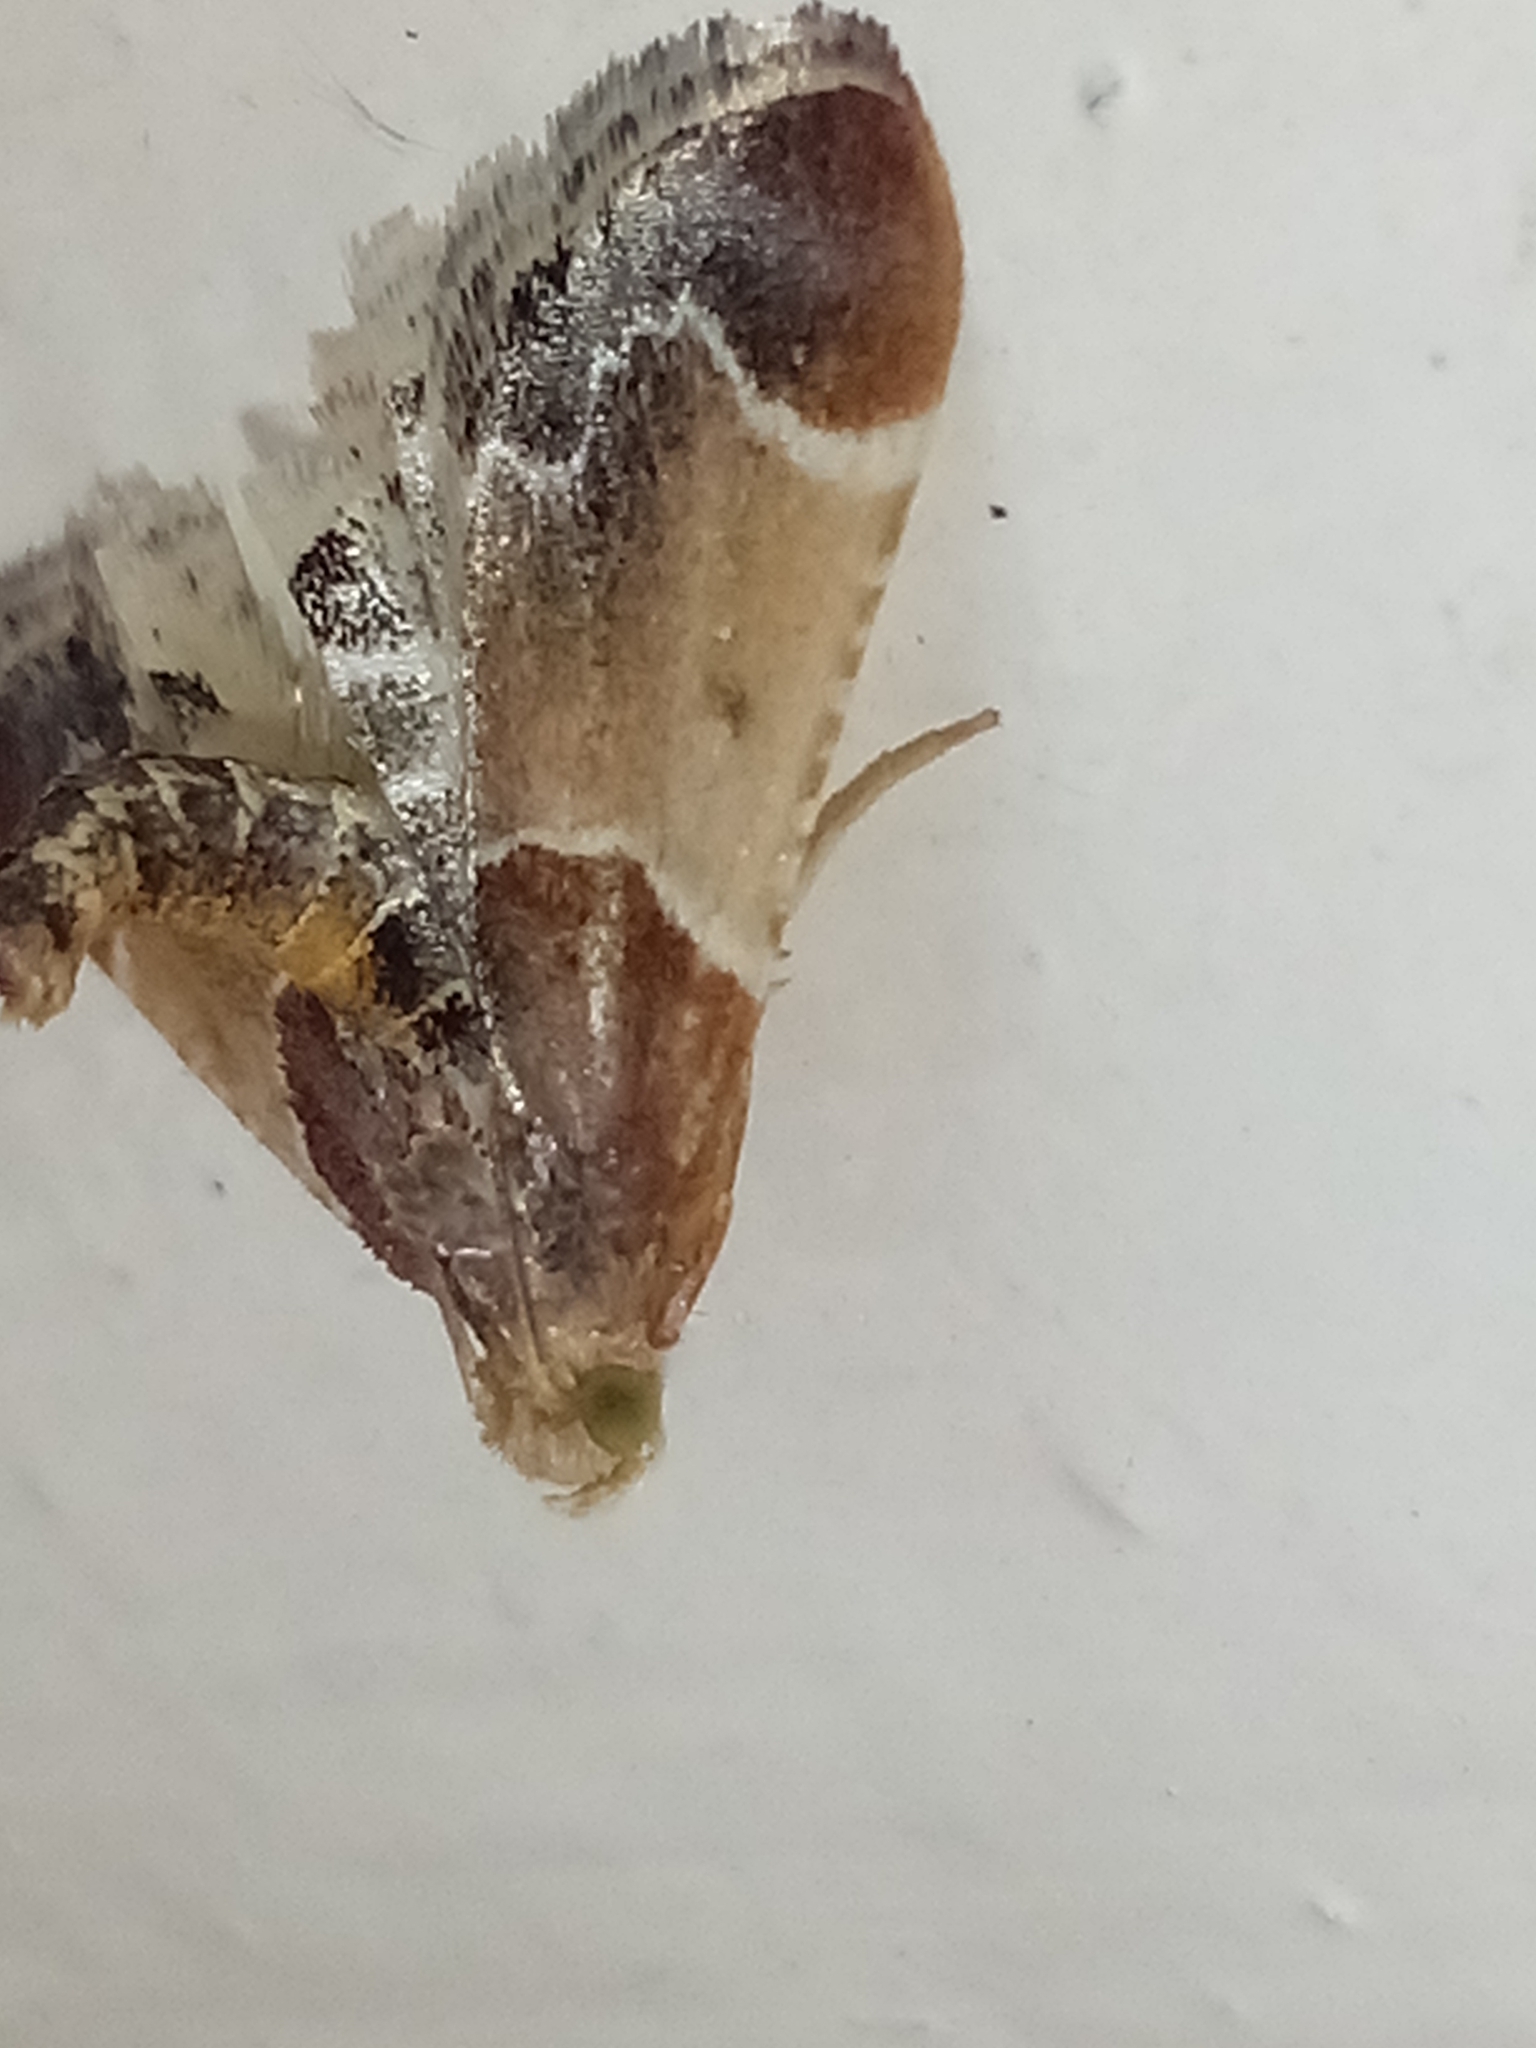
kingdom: Animalia
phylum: Arthropoda
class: Insecta
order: Lepidoptera
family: Pyralidae
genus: Pyralis
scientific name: Pyralis farinalis
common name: Meal moth
